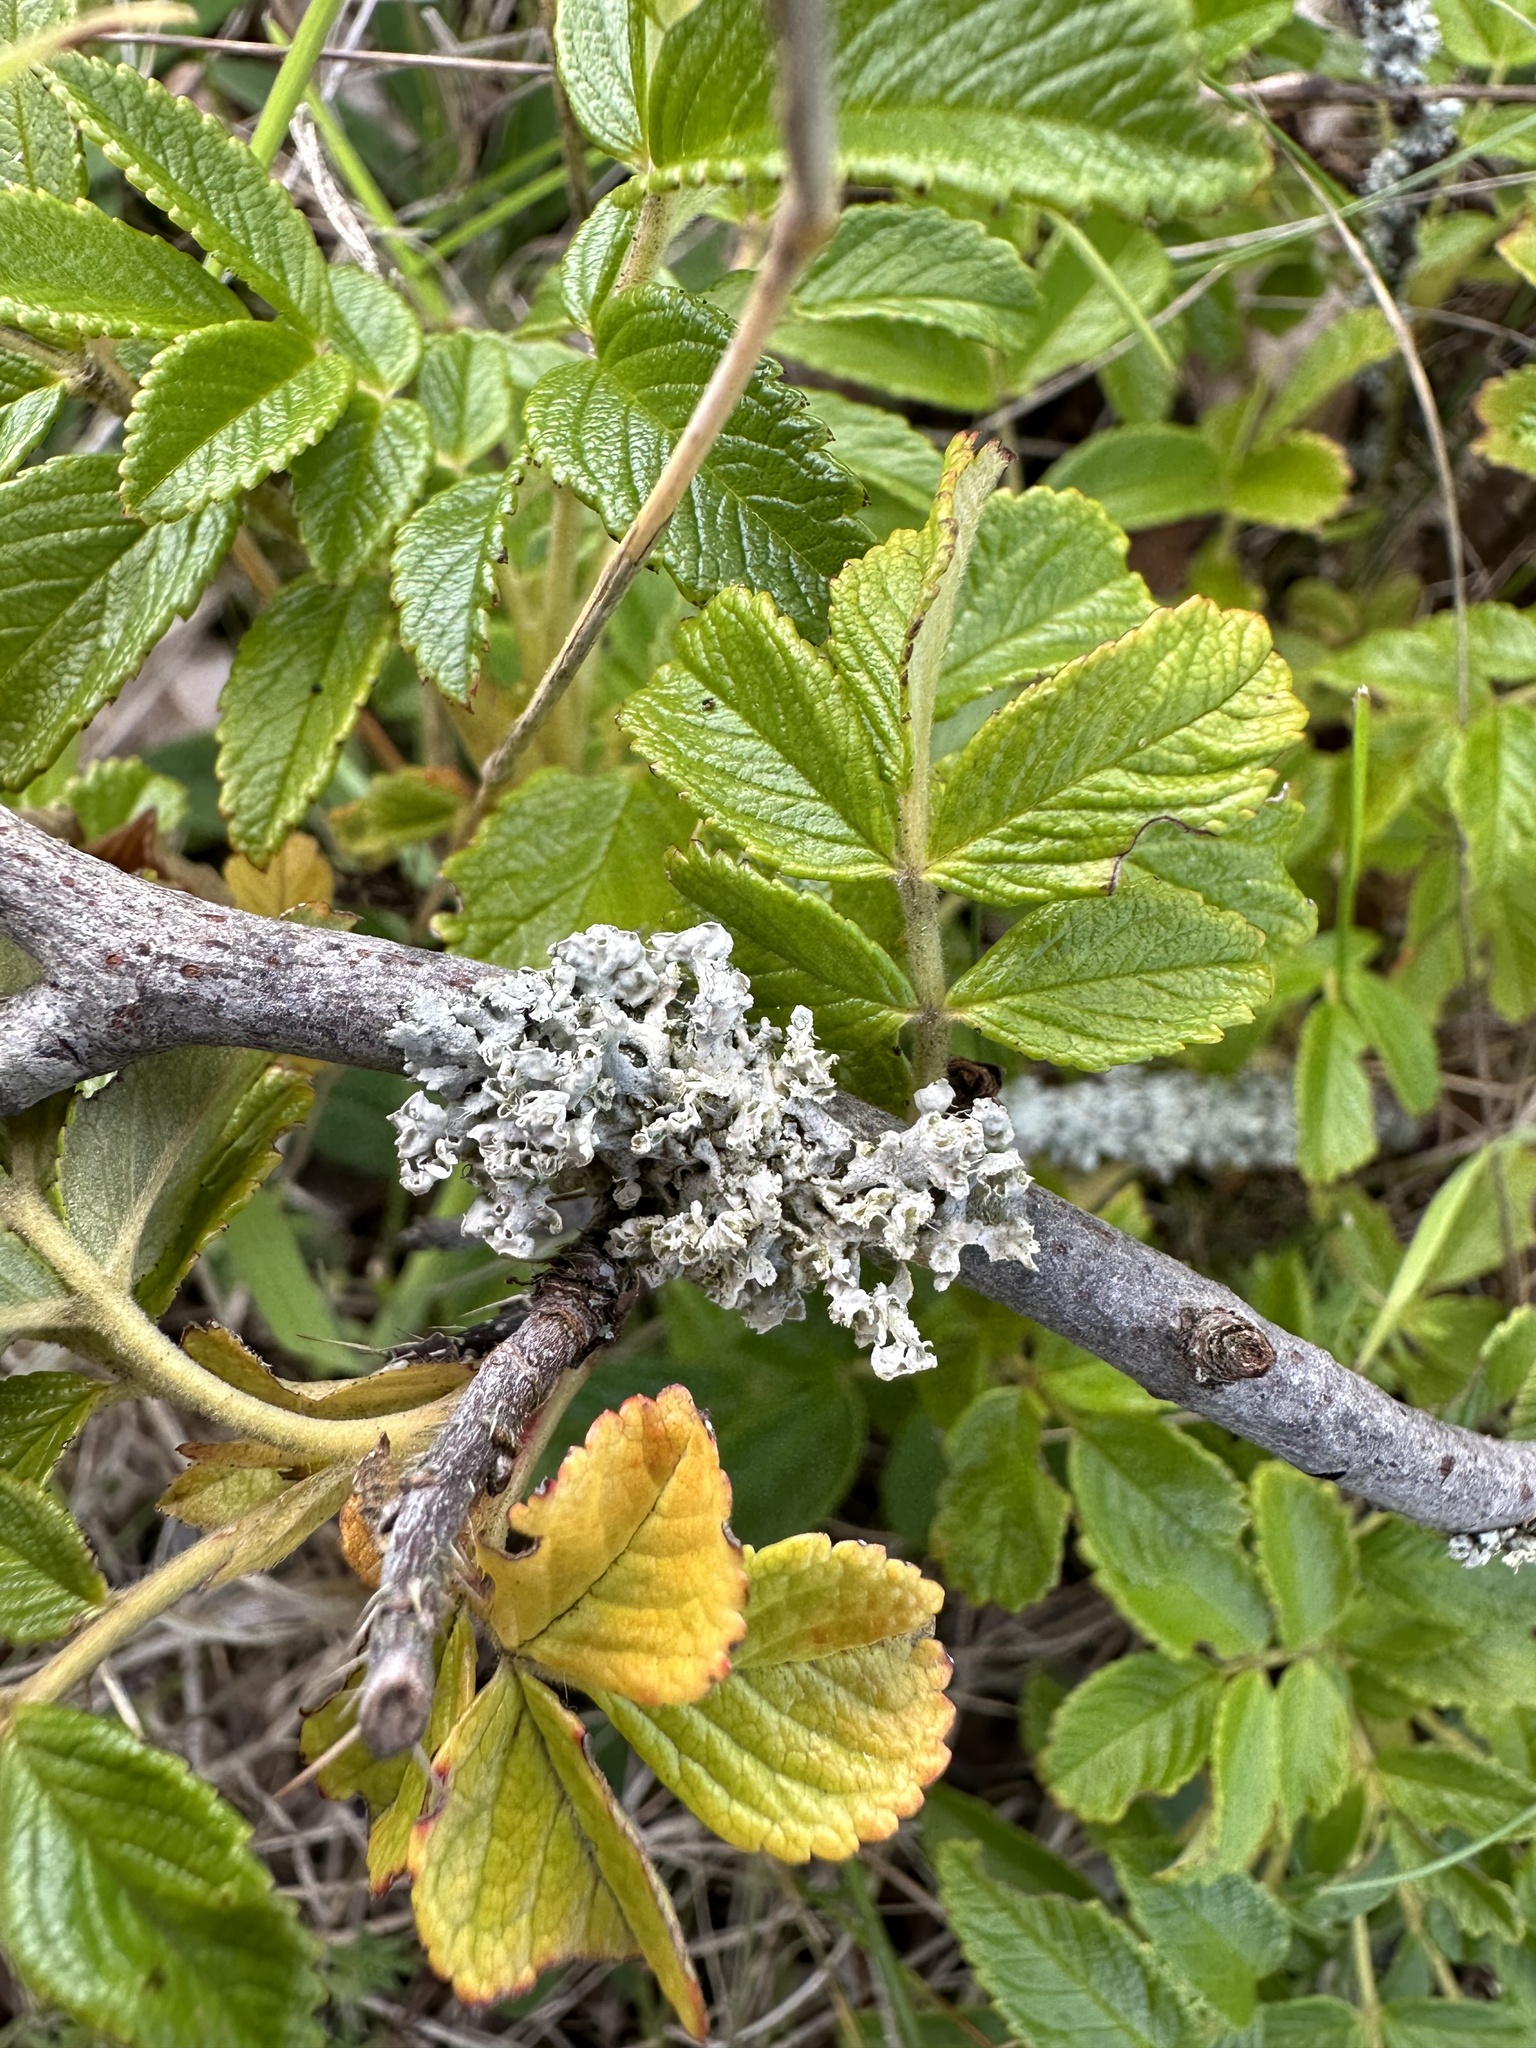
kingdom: Fungi
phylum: Ascomycota
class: Lecanoromycetes
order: Caliciales
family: Physciaceae
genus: Physcia
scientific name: Physcia adscendens
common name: Hooded rosette lichen
